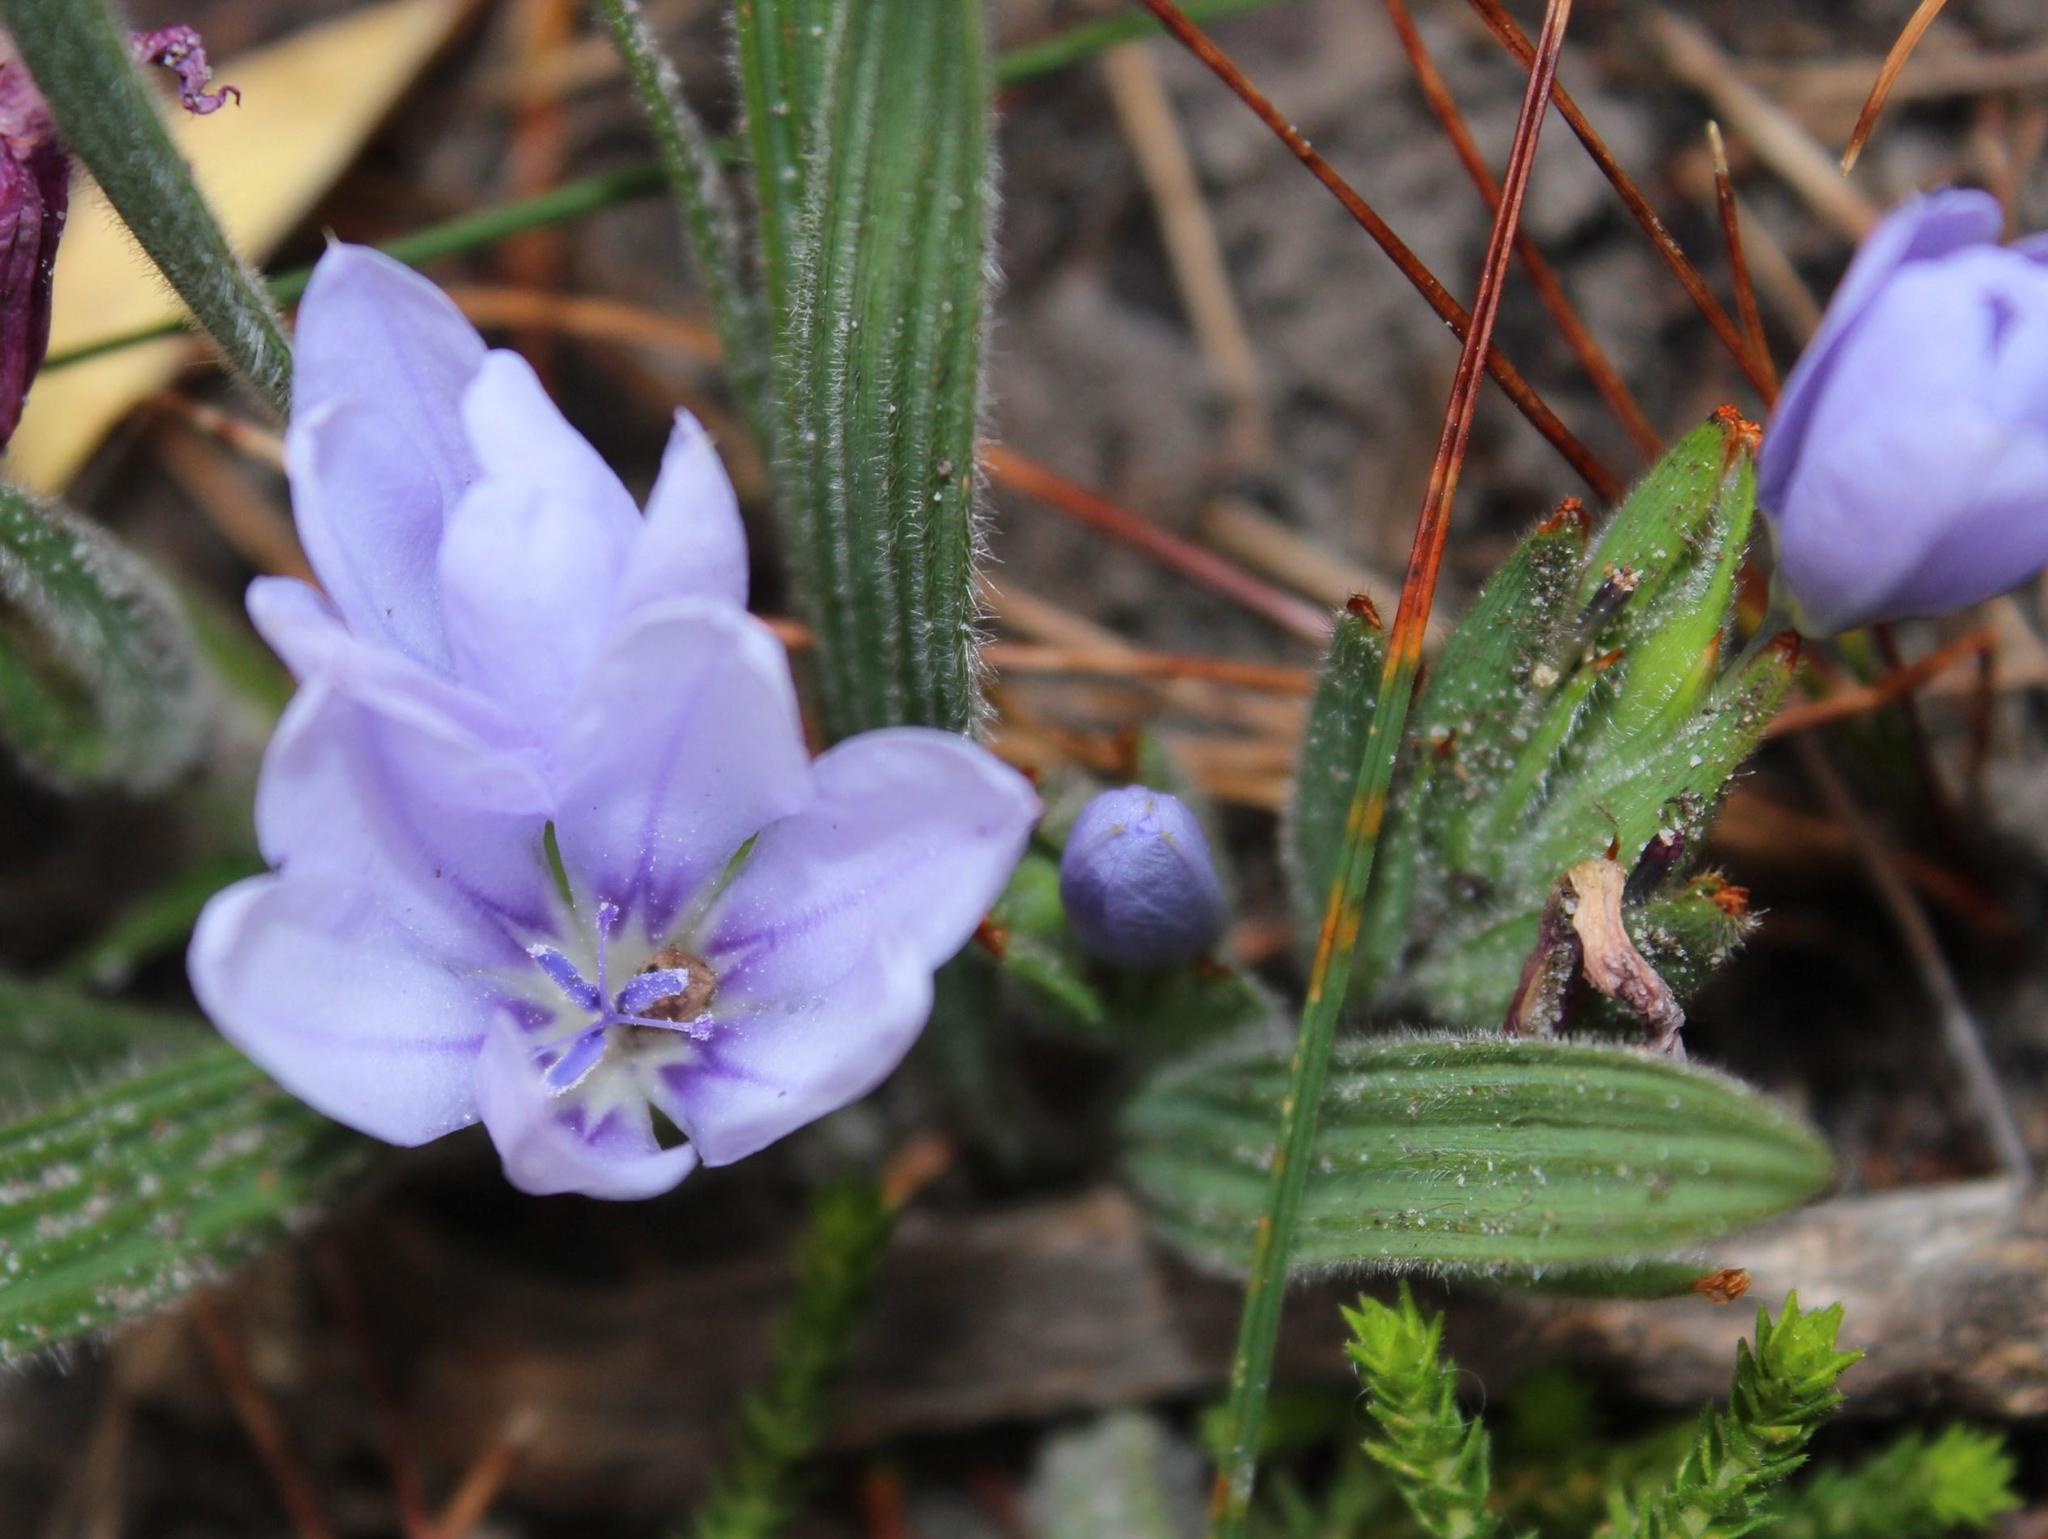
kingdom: Plantae
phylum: Tracheophyta
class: Liliopsida
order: Asparagales
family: Iridaceae
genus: Babiana
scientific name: Babiana villosula
